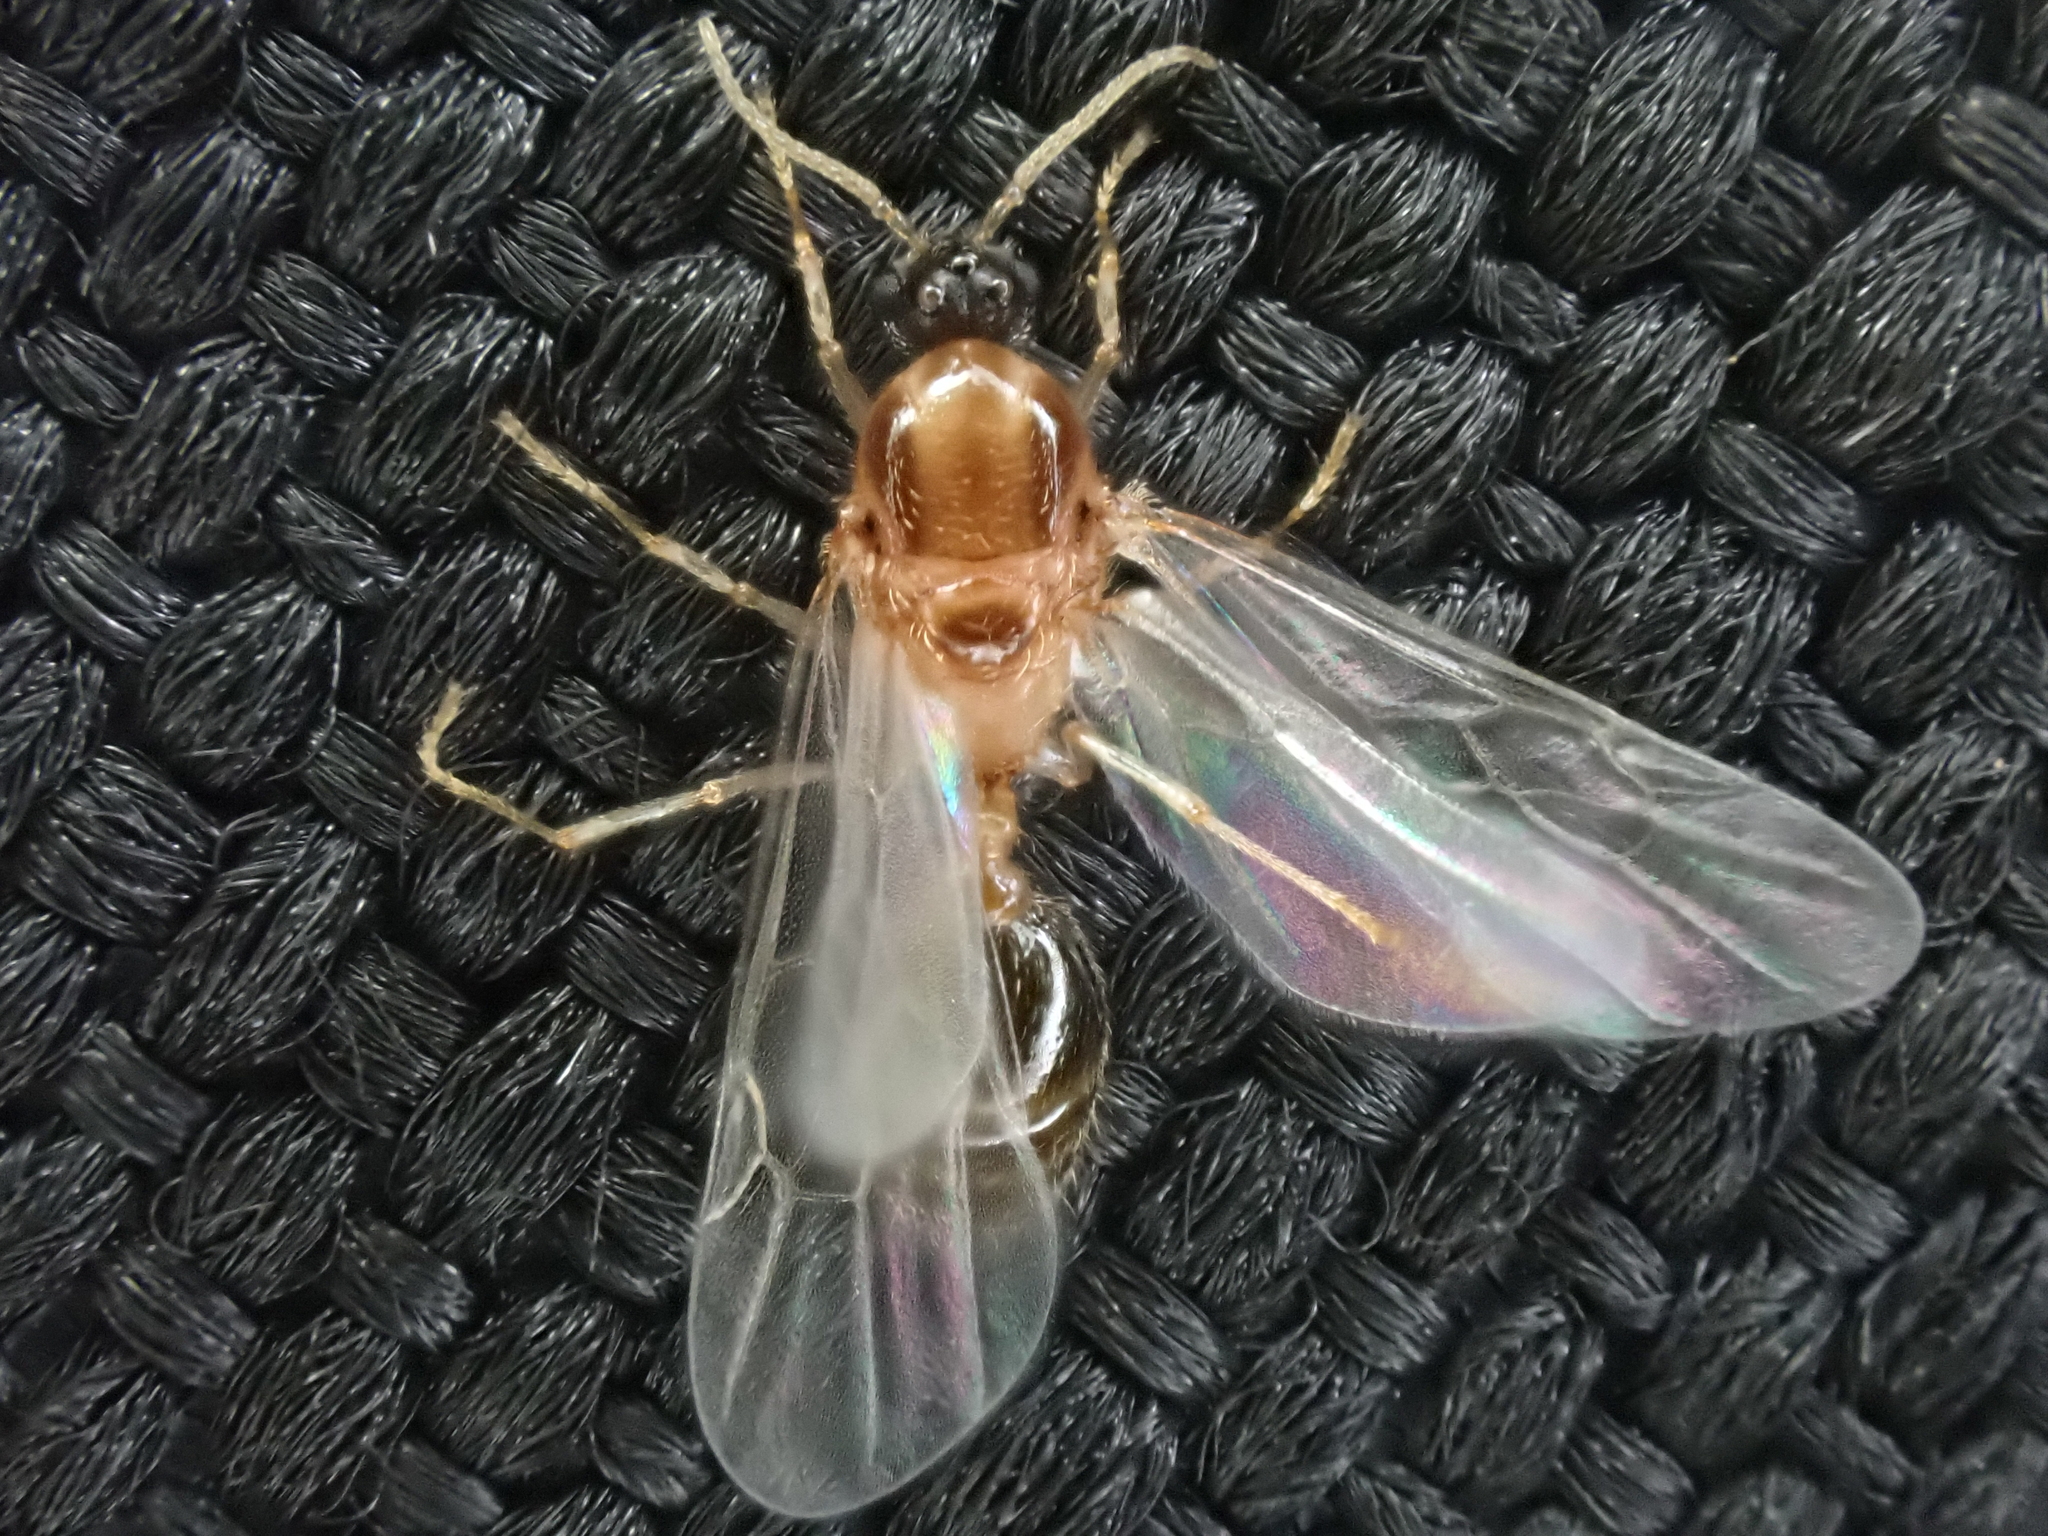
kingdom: Animalia
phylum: Arthropoda
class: Insecta
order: Hymenoptera
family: Formicidae
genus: Pheidole
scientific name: Pheidole bicarinata
